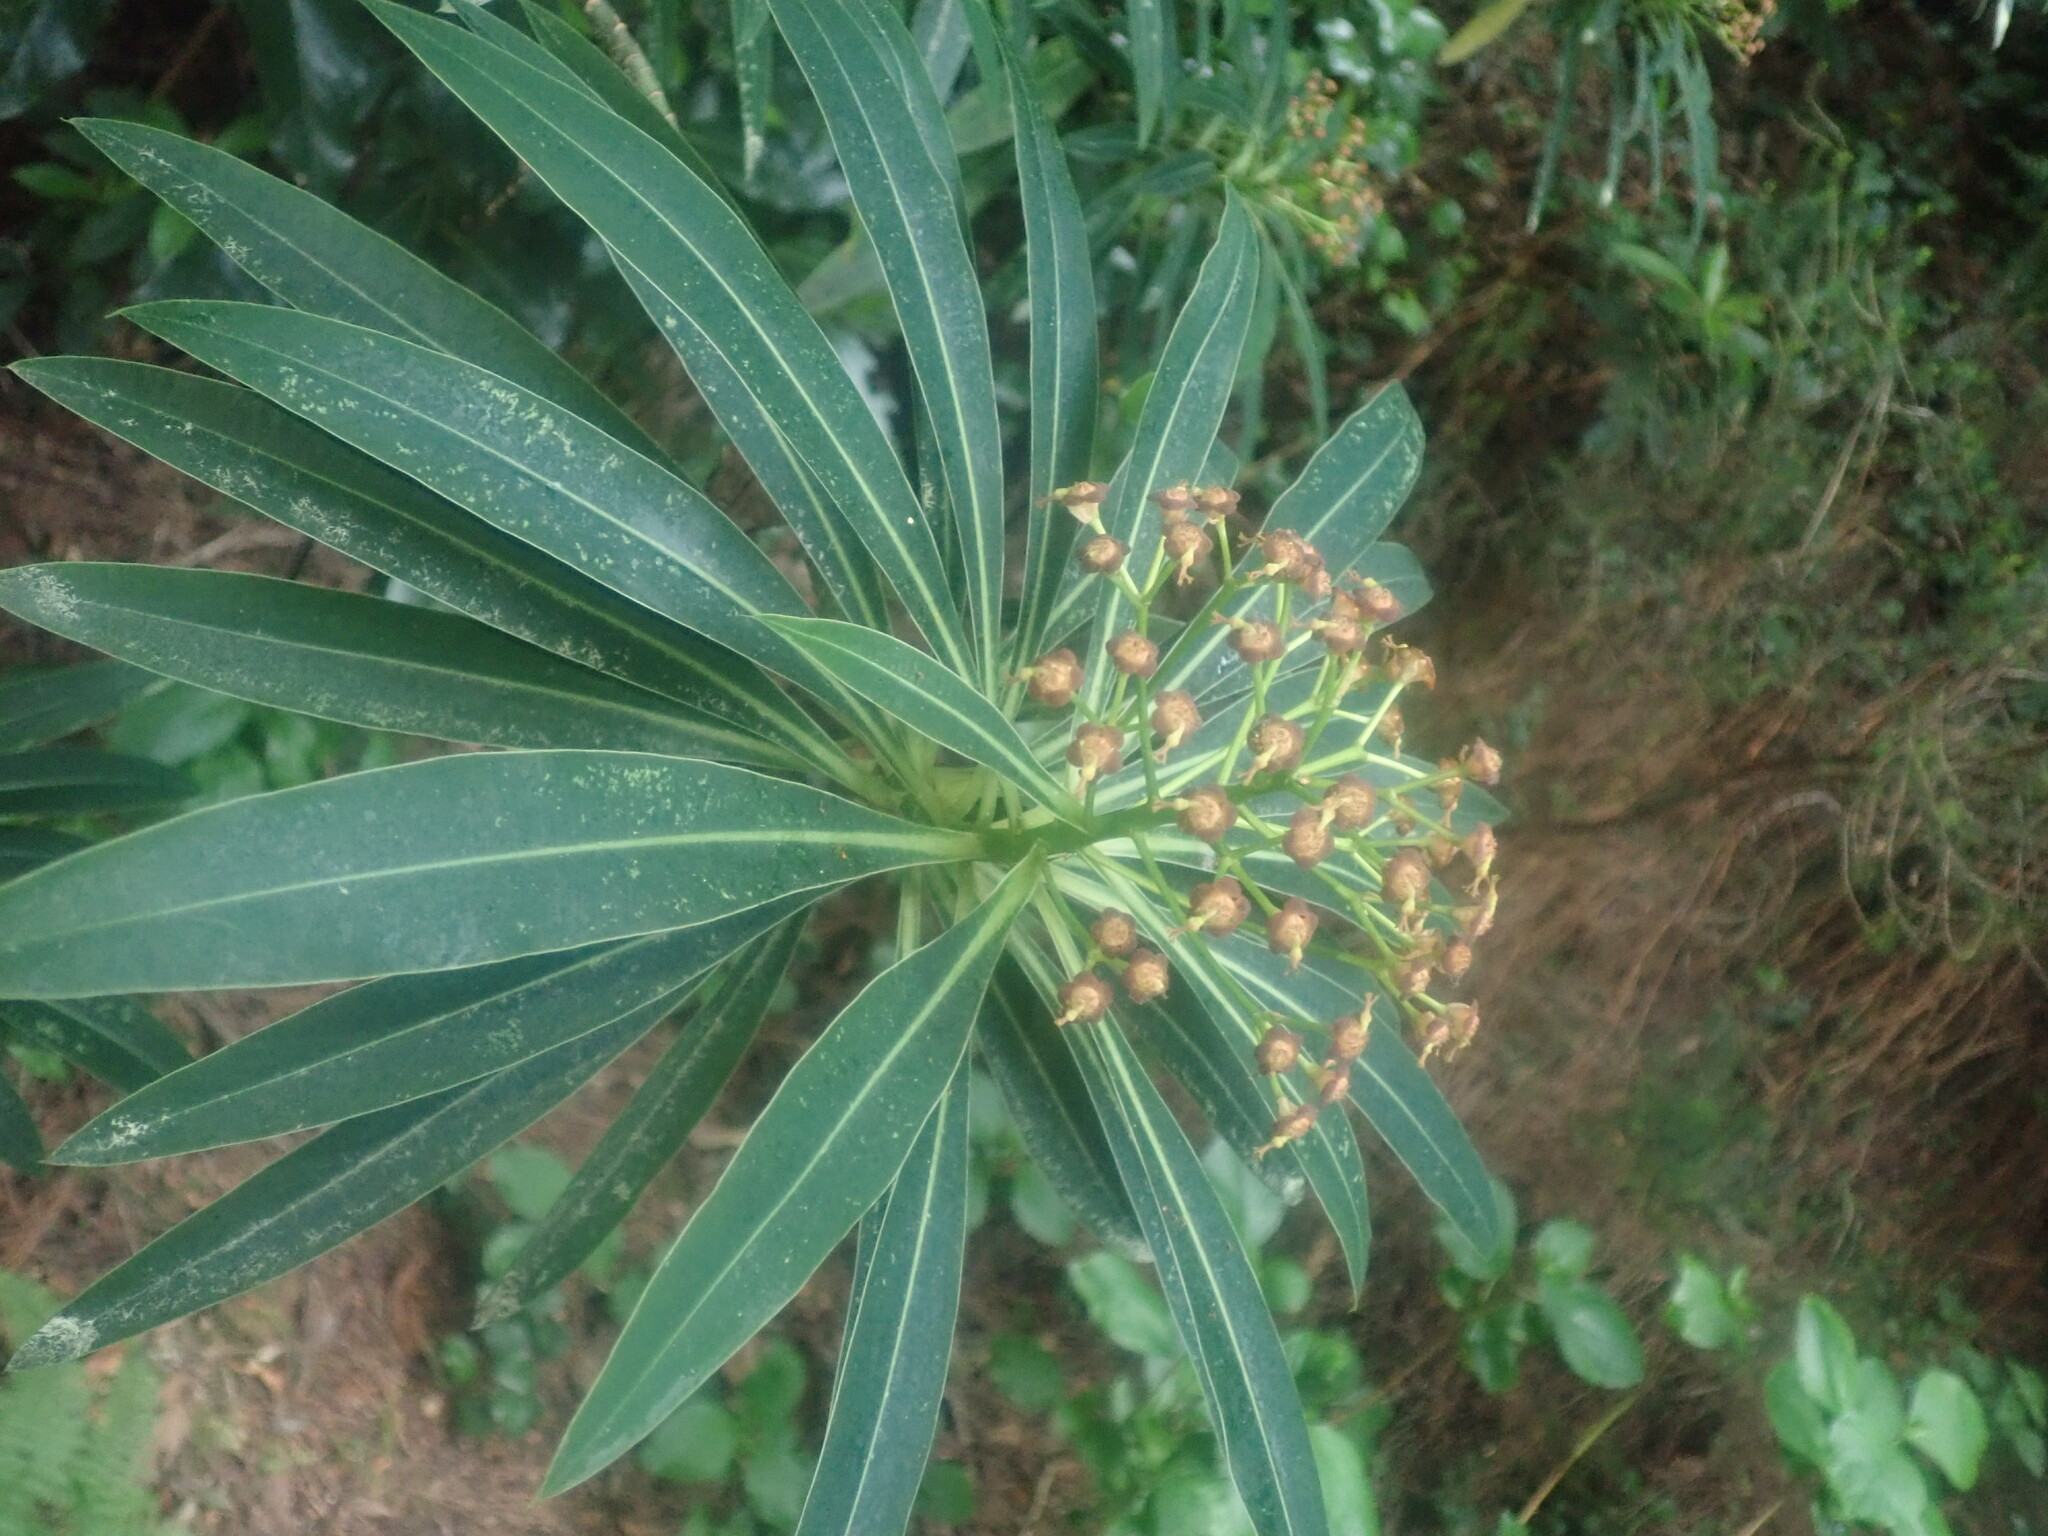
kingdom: Plantae
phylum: Tracheophyta
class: Magnoliopsida
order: Malpighiales
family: Euphorbiaceae
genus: Euphorbia
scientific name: Euphorbia mellifera
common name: Canary spurge
